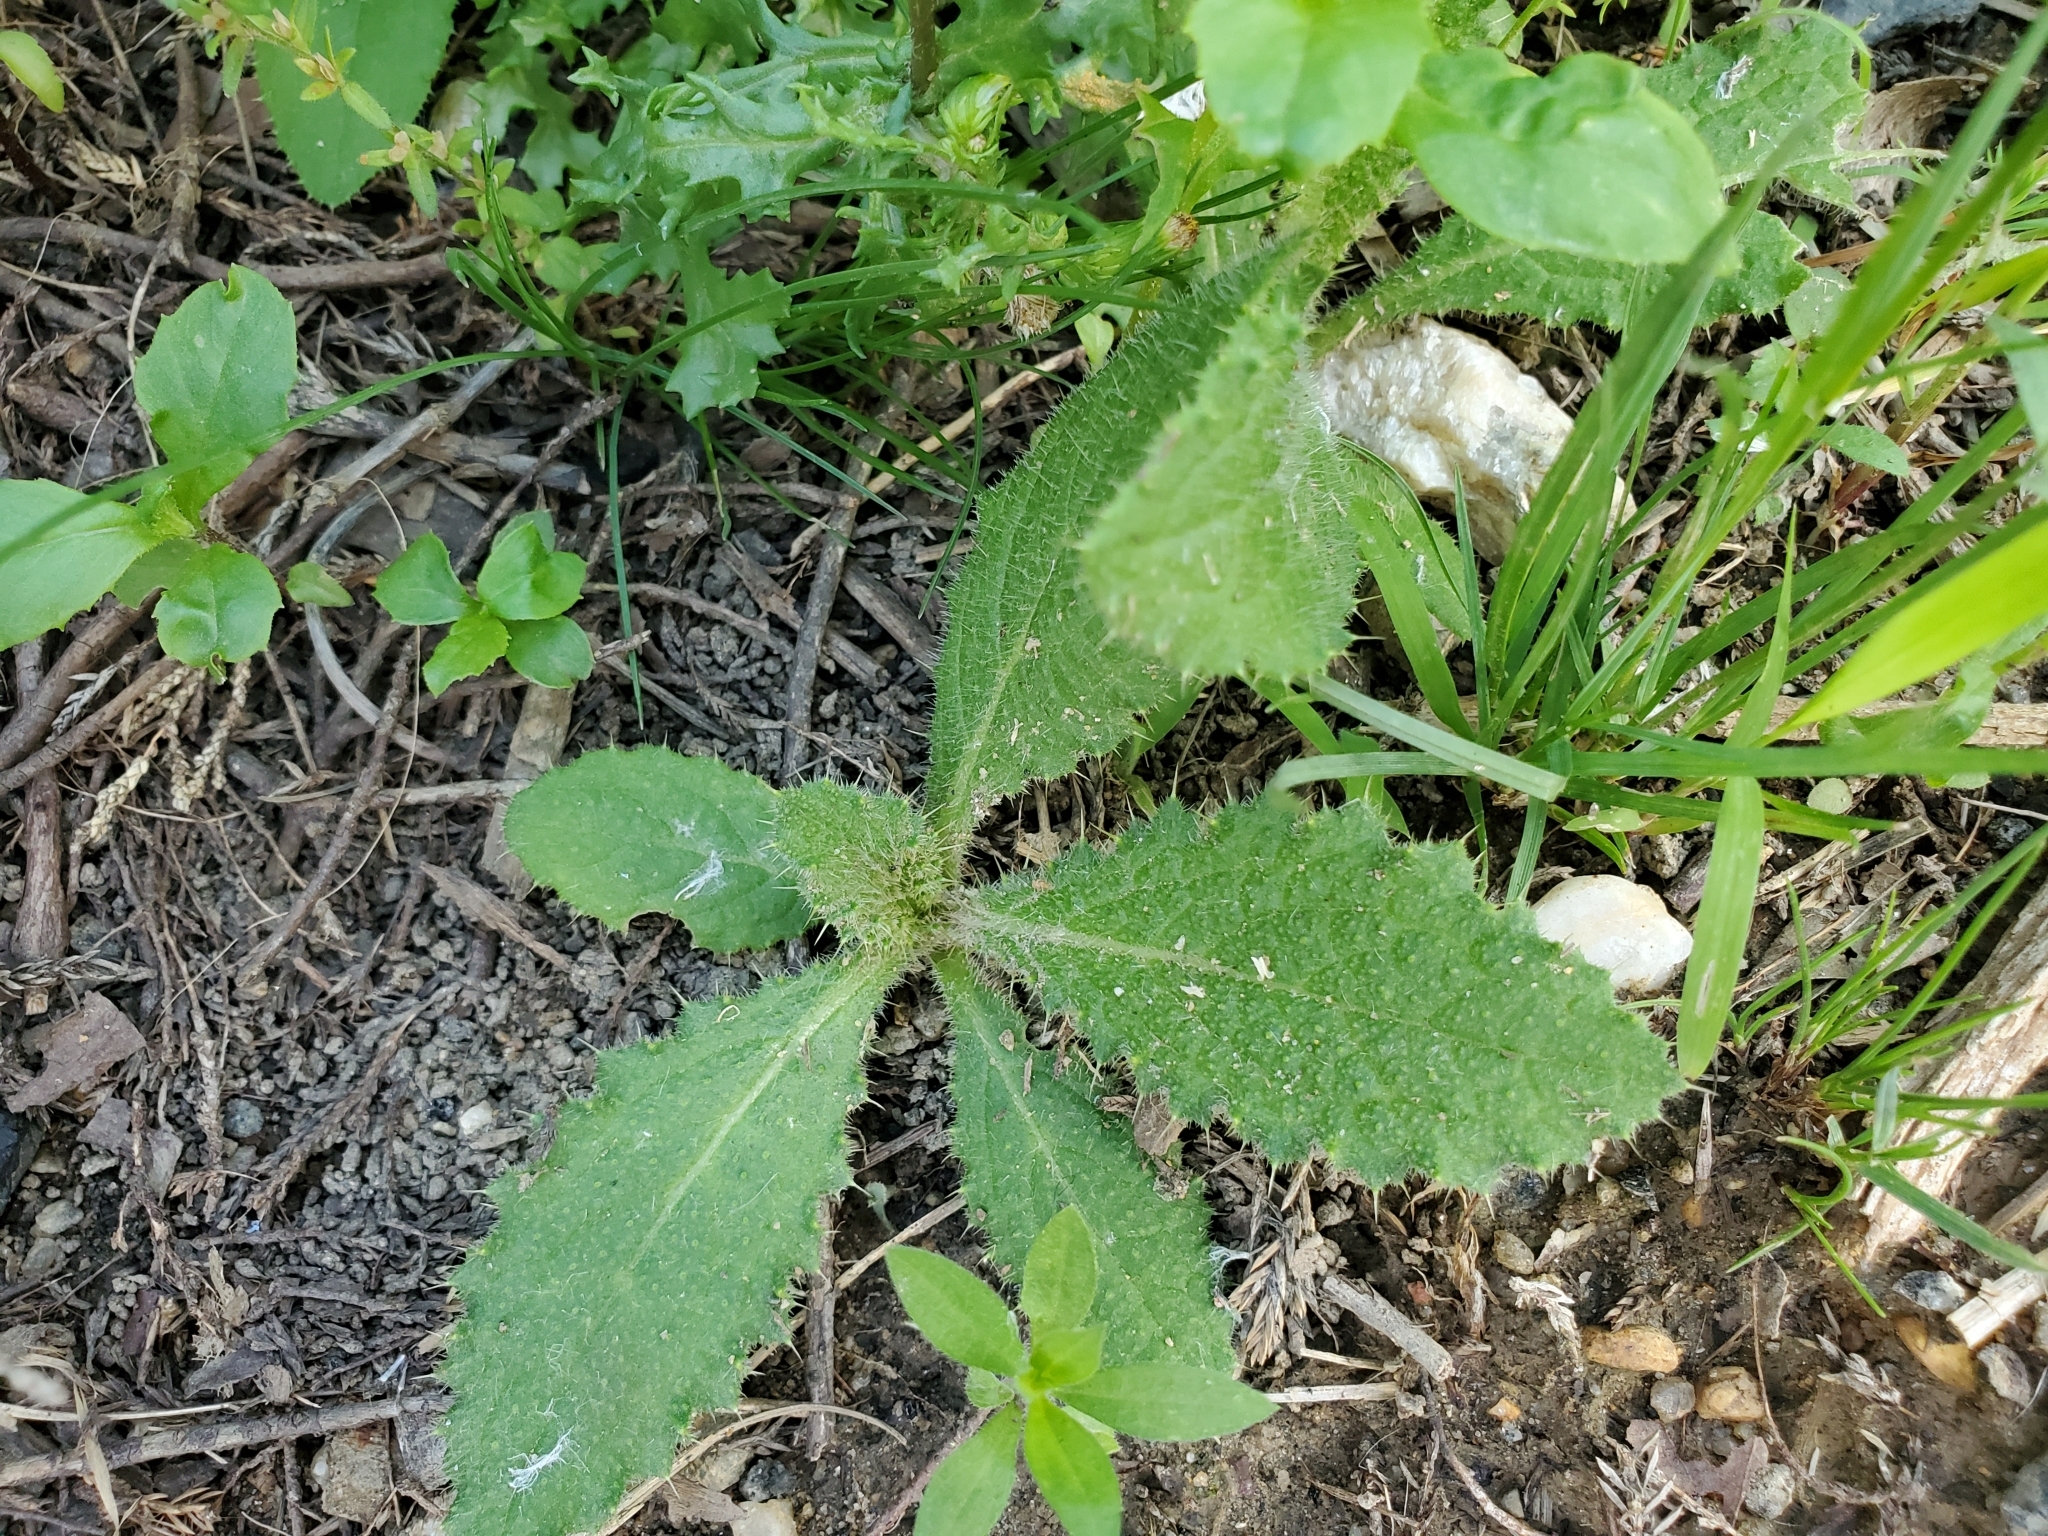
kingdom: Plantae
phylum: Tracheophyta
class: Magnoliopsida
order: Asterales
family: Asteraceae
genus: Cirsium
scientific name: Cirsium vulgare
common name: Bull thistle
